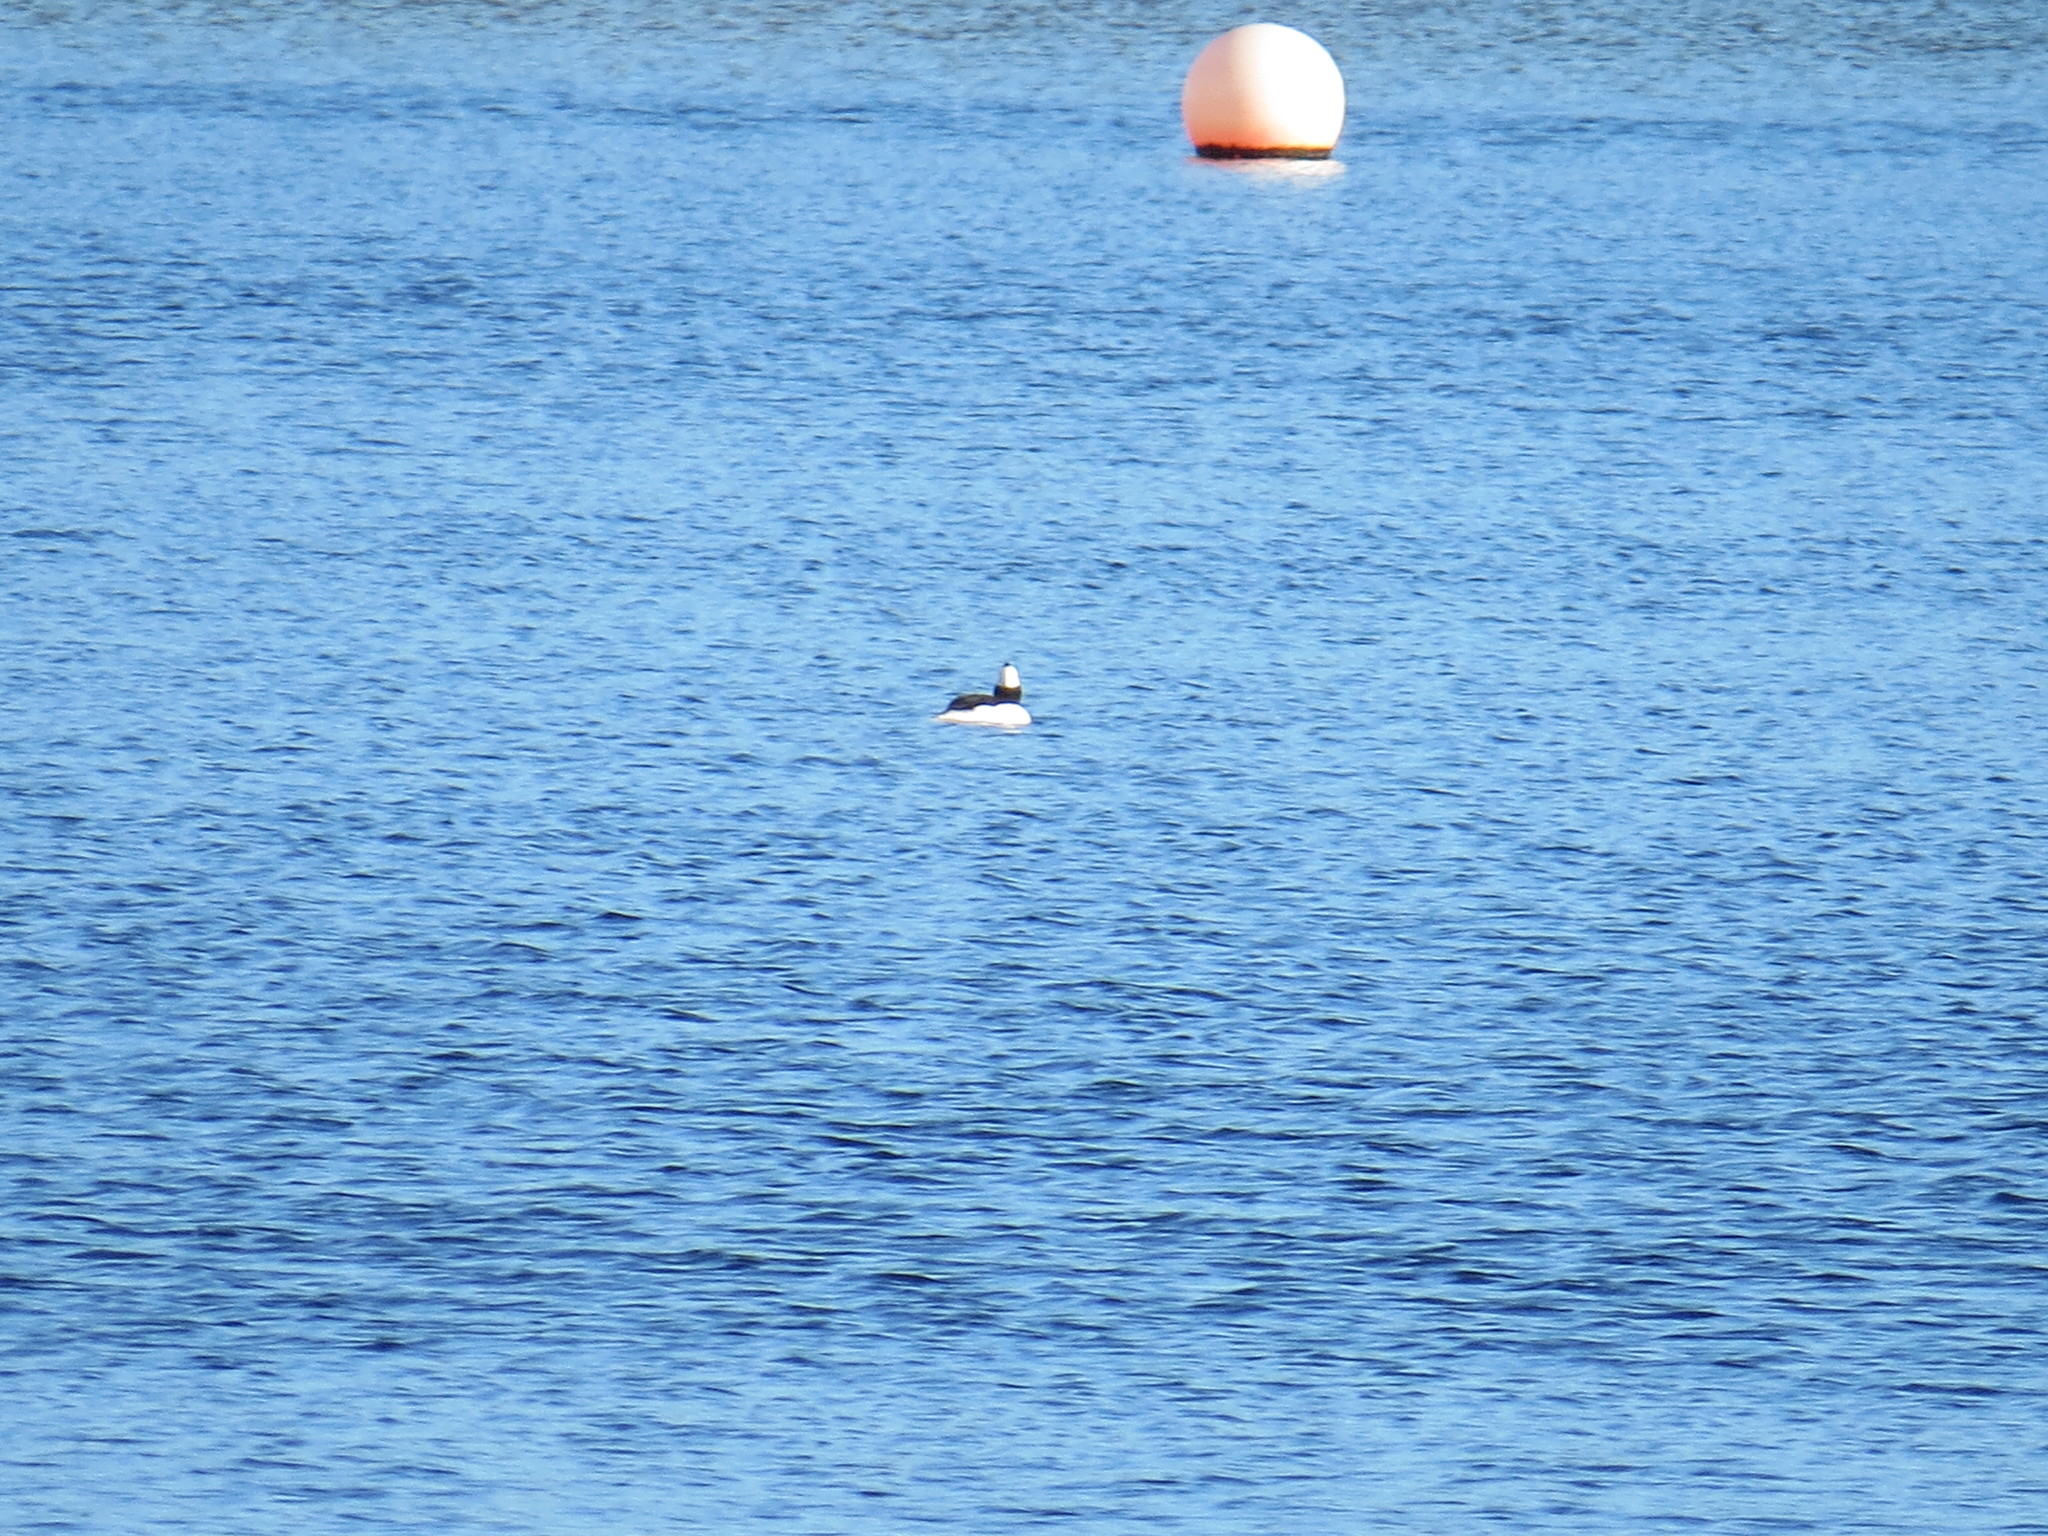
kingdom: Animalia
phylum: Chordata
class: Aves
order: Anseriformes
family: Anatidae
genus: Bucephala
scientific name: Bucephala albeola
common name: Bufflehead
